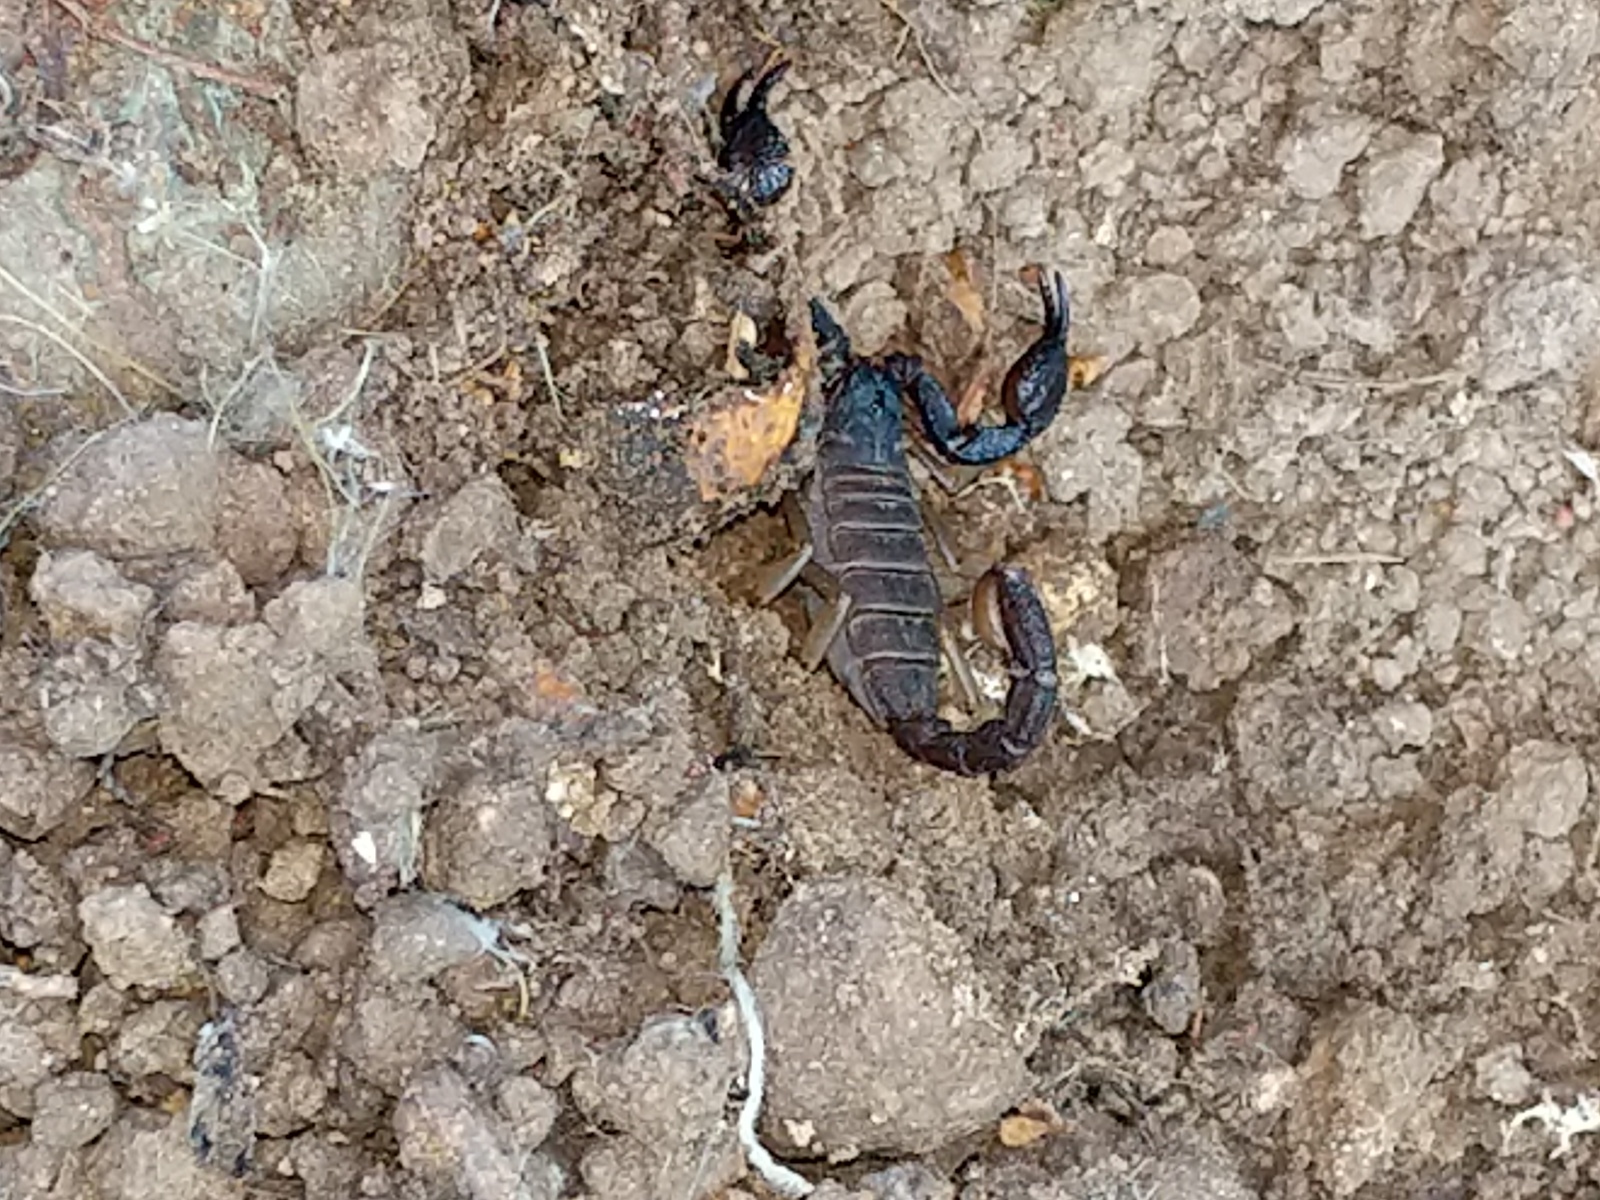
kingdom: Animalia
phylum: Arthropoda
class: Arachnida
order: Scorpiones
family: Chactidae
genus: Uroctonus
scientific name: Uroctonus mordax
